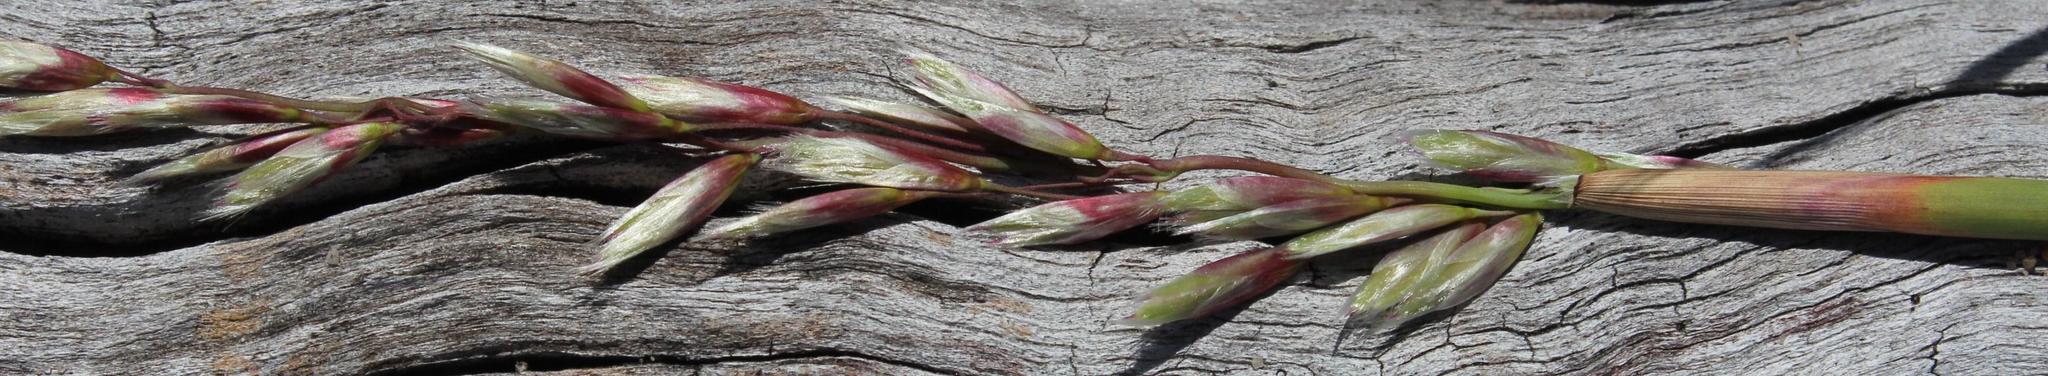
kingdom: Plantae
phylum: Tracheophyta
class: Liliopsida
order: Poales
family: Poaceae
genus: Ehrharta
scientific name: Ehrharta calycina
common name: Perennial veldtgrass
